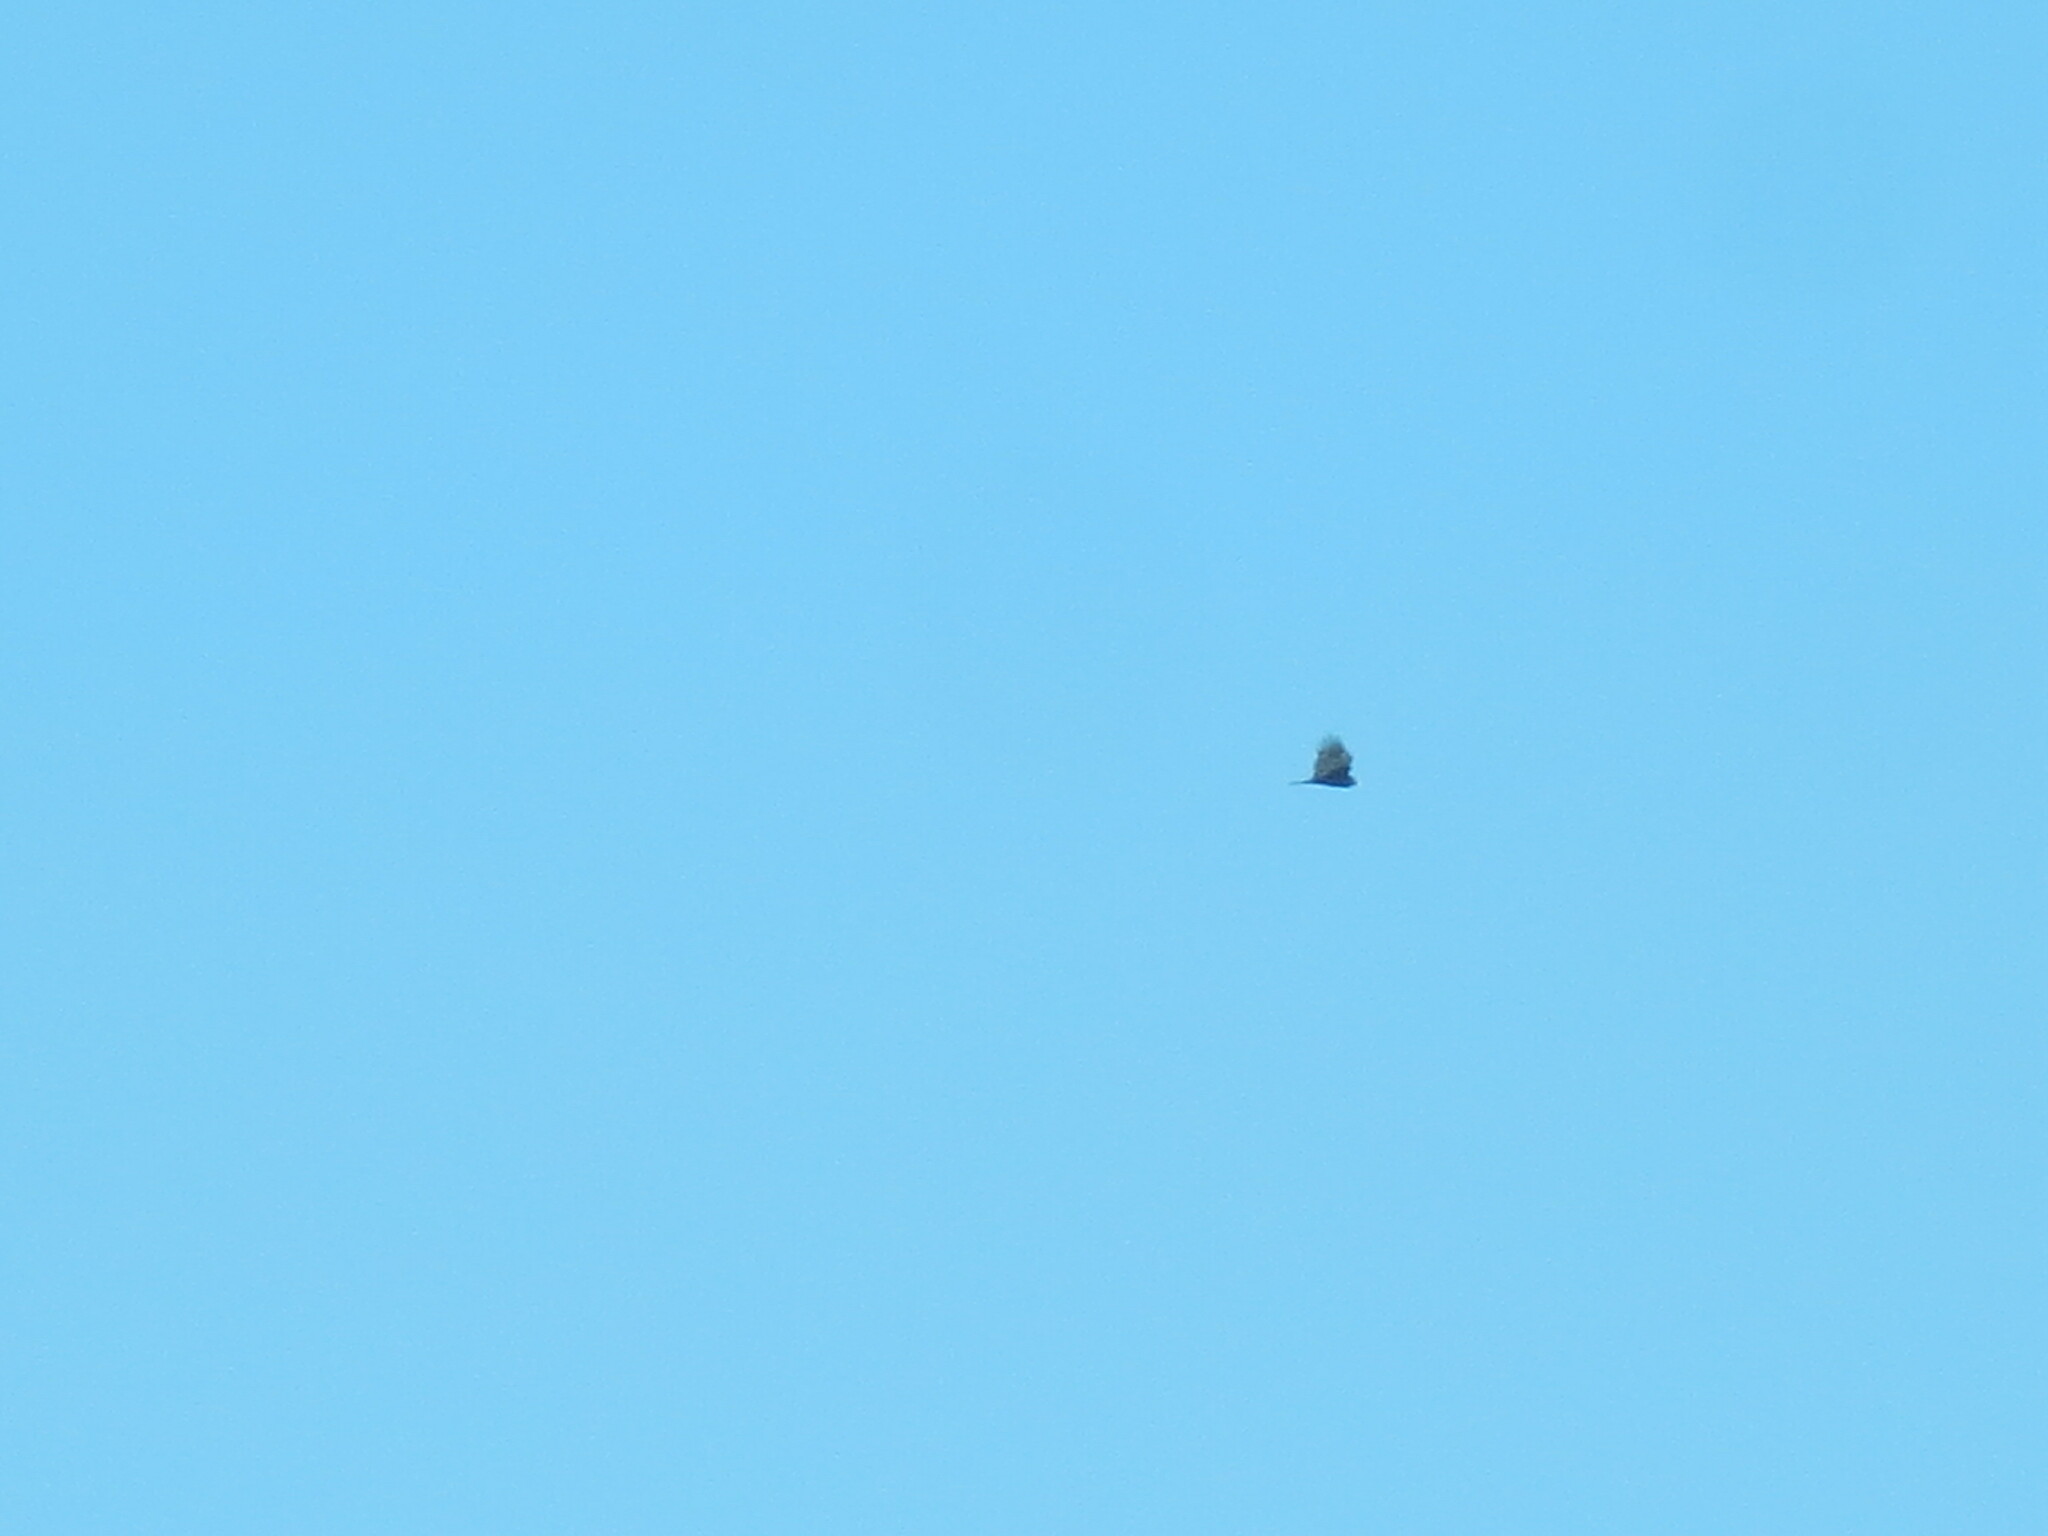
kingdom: Animalia
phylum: Chordata
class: Aves
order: Accipitriformes
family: Cathartidae
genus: Cathartes
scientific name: Cathartes aura
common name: Turkey vulture
